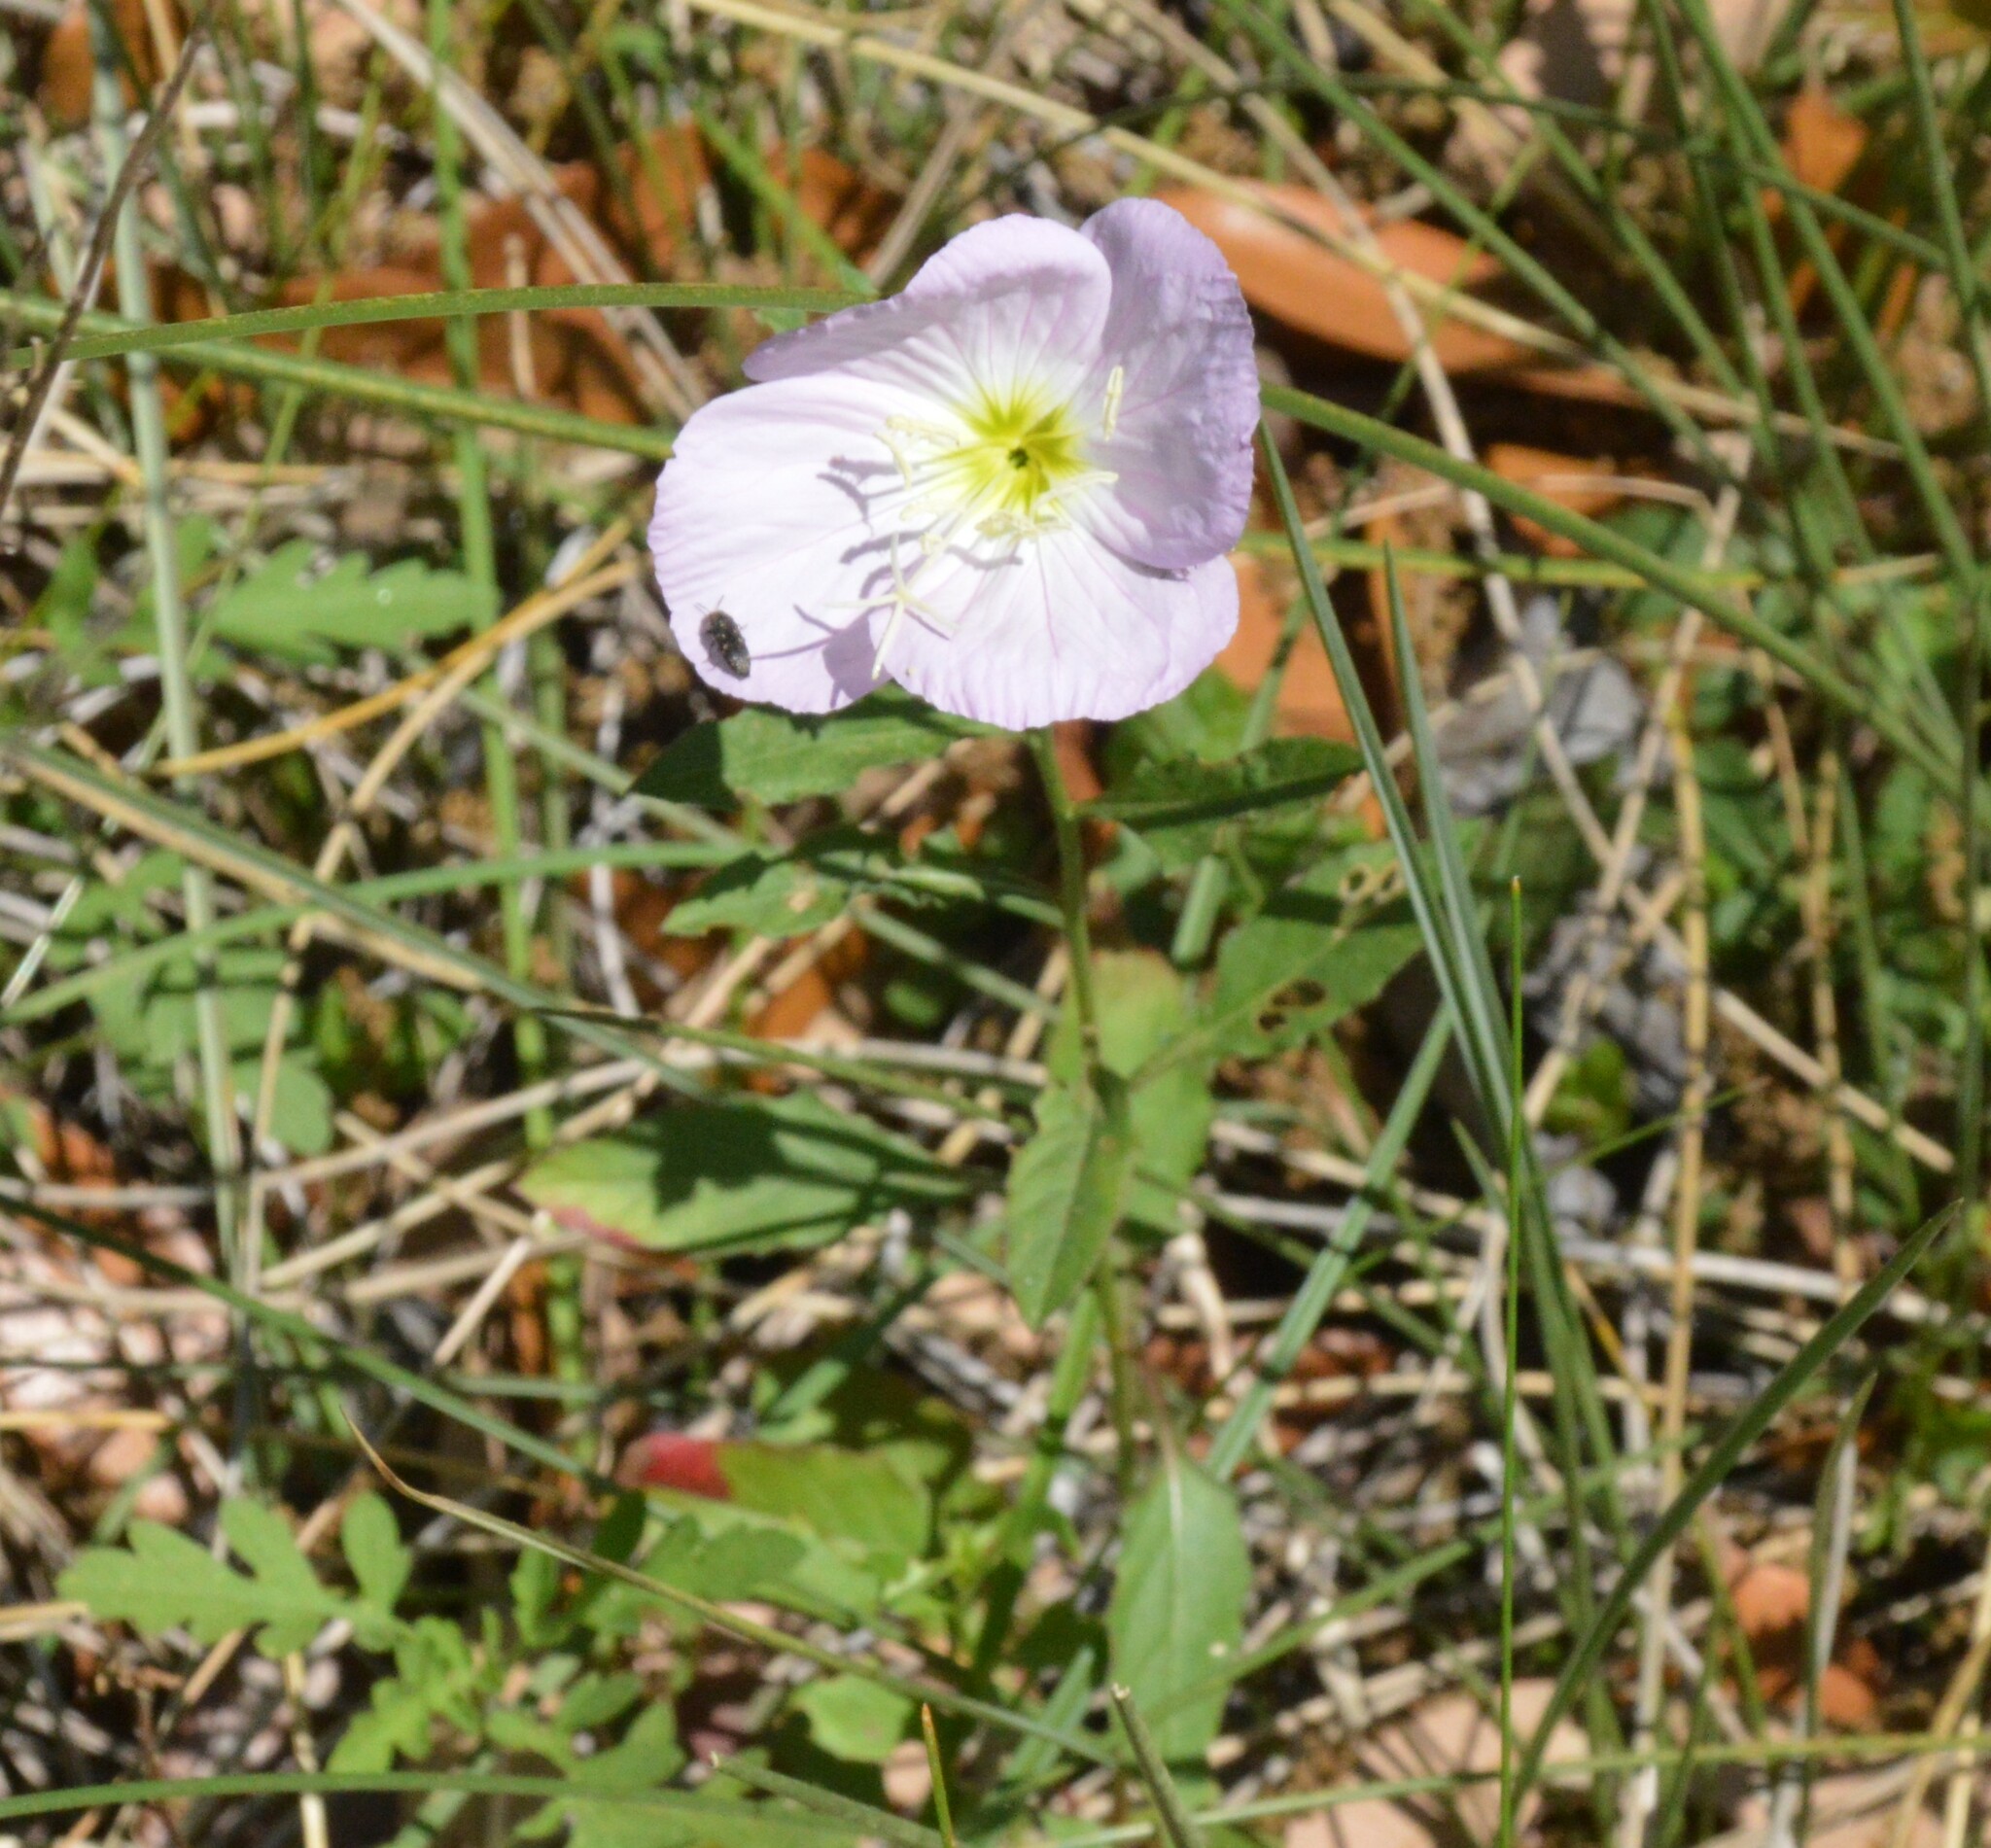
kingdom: Plantae
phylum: Tracheophyta
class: Magnoliopsida
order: Myrtales
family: Onagraceae
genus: Oenothera
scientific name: Oenothera speciosa
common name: White evening-primrose
